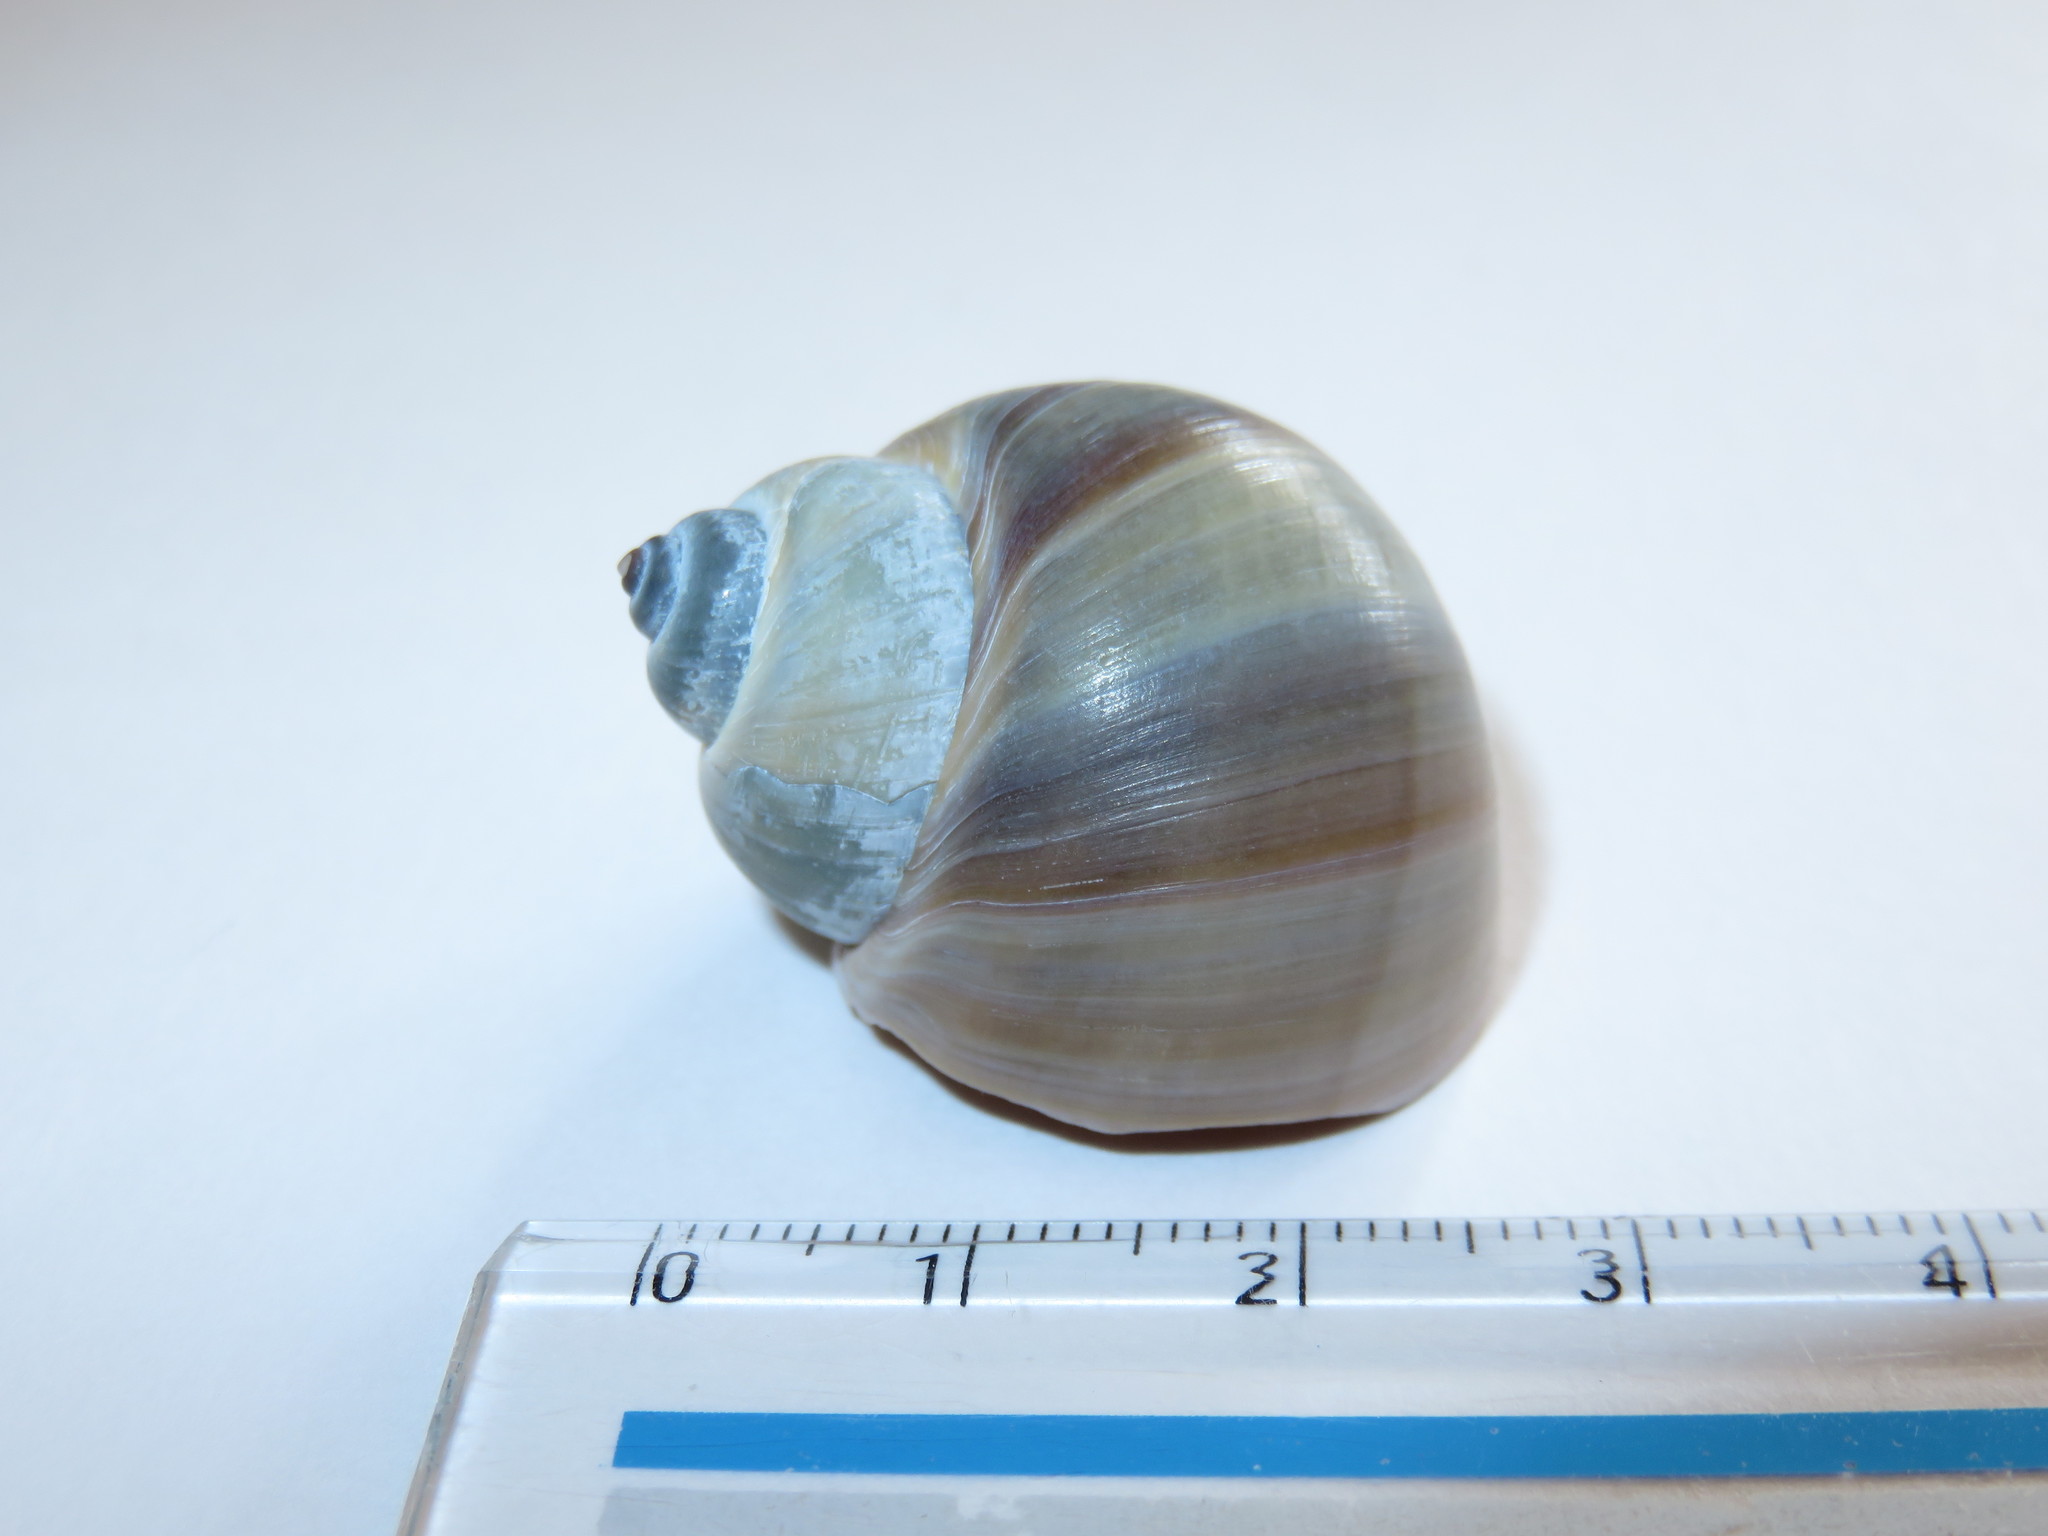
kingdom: Animalia
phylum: Mollusca
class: Gastropoda
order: Littorinimorpha
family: Naticidae
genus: Laguncula
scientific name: Laguncula pulchella
